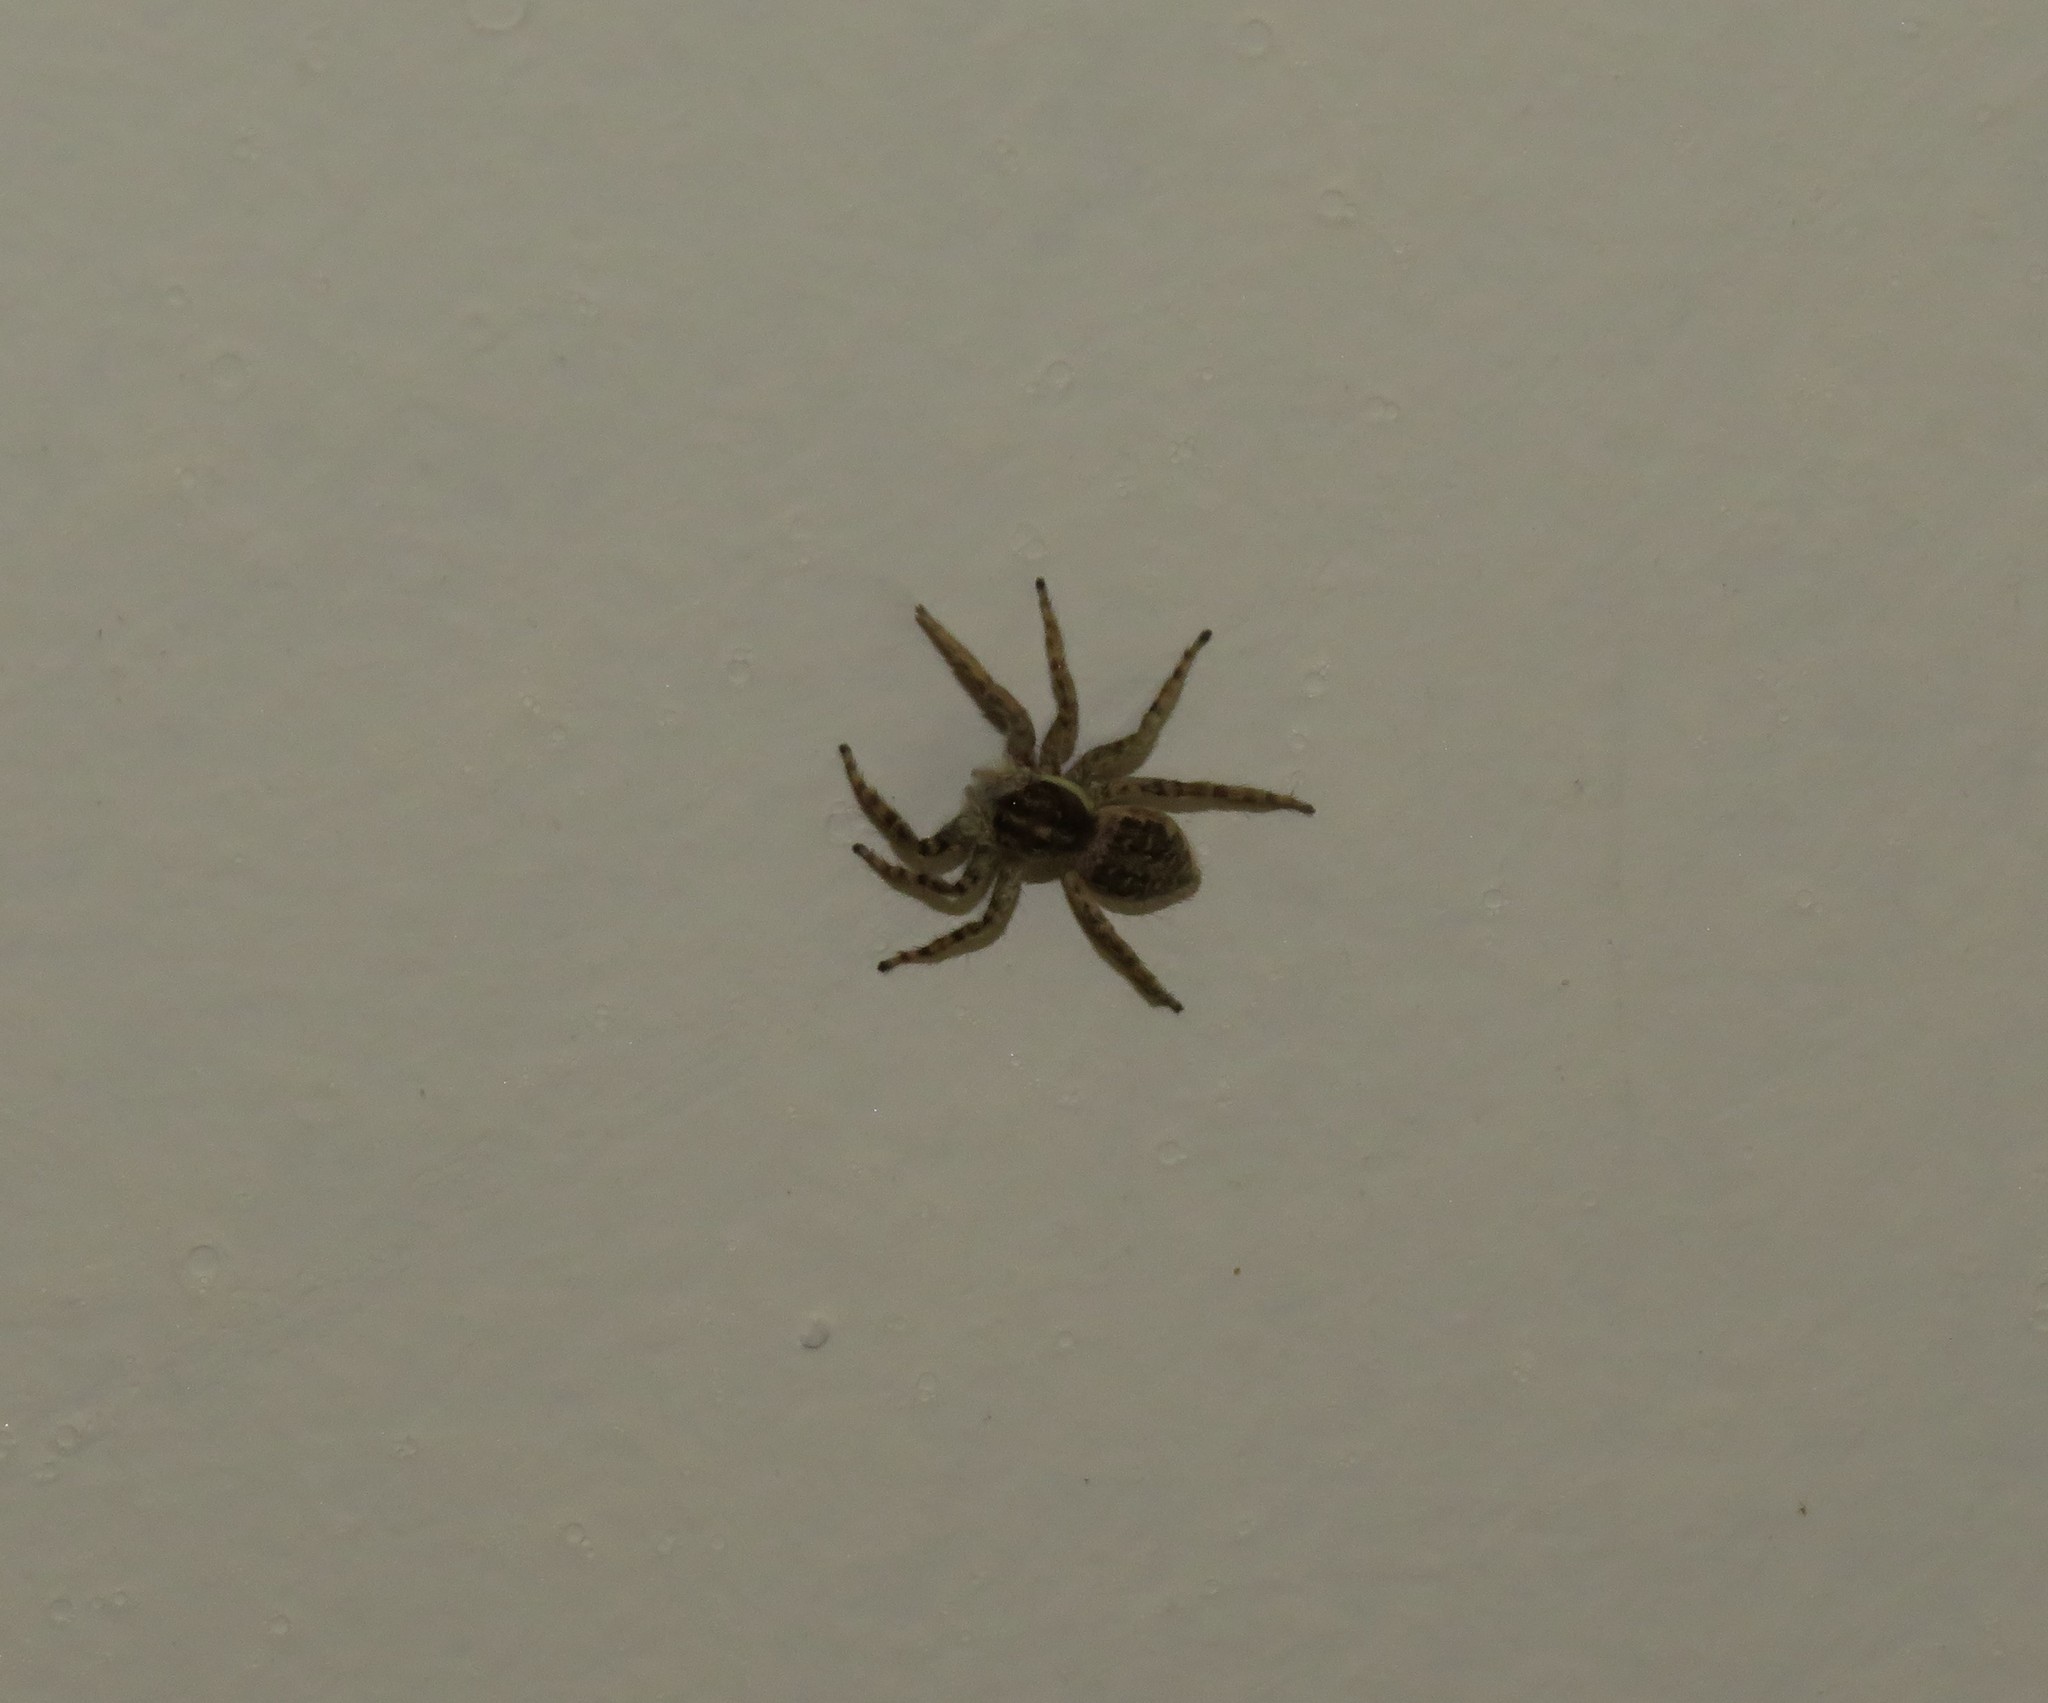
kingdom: Animalia
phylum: Arthropoda
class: Arachnida
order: Araneae
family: Salticidae
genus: Menemerus
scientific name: Menemerus semilimbatus
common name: Jumping spider
